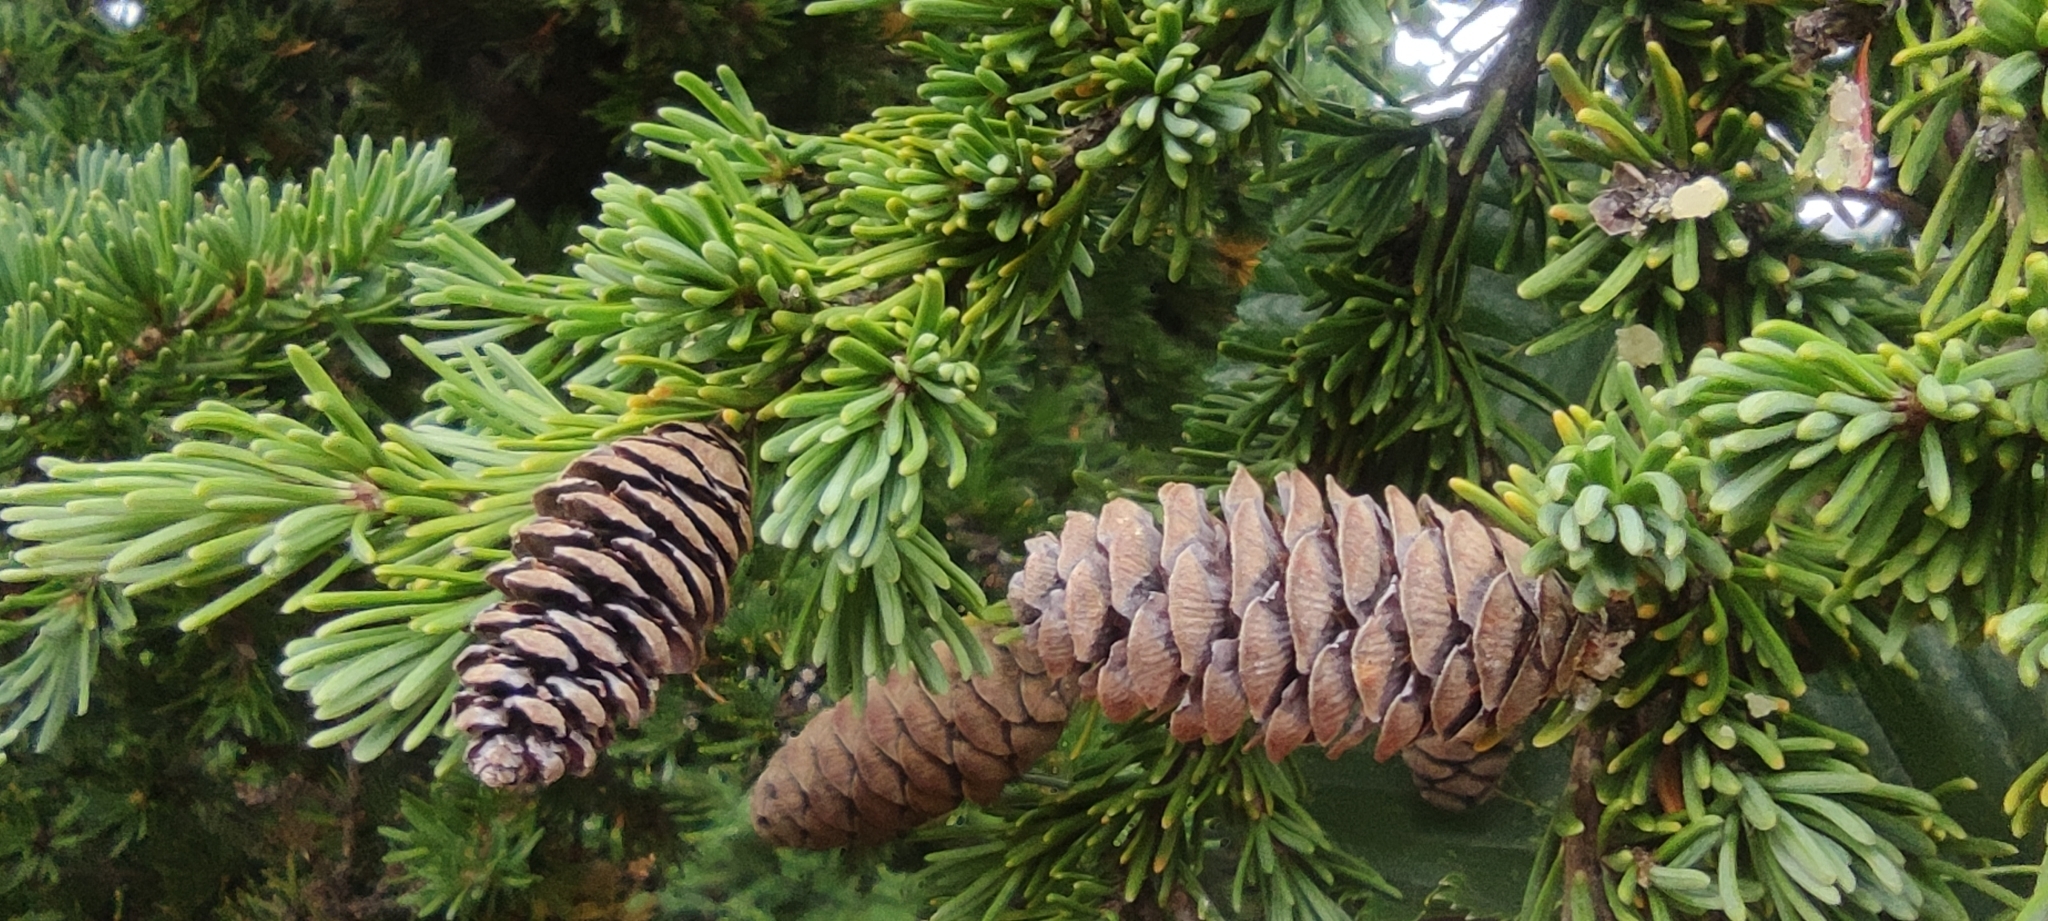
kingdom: Plantae
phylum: Tracheophyta
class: Pinopsida
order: Pinales
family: Pinaceae
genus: Tsuga
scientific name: Tsuga mertensiana
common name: Mountain hemlock
